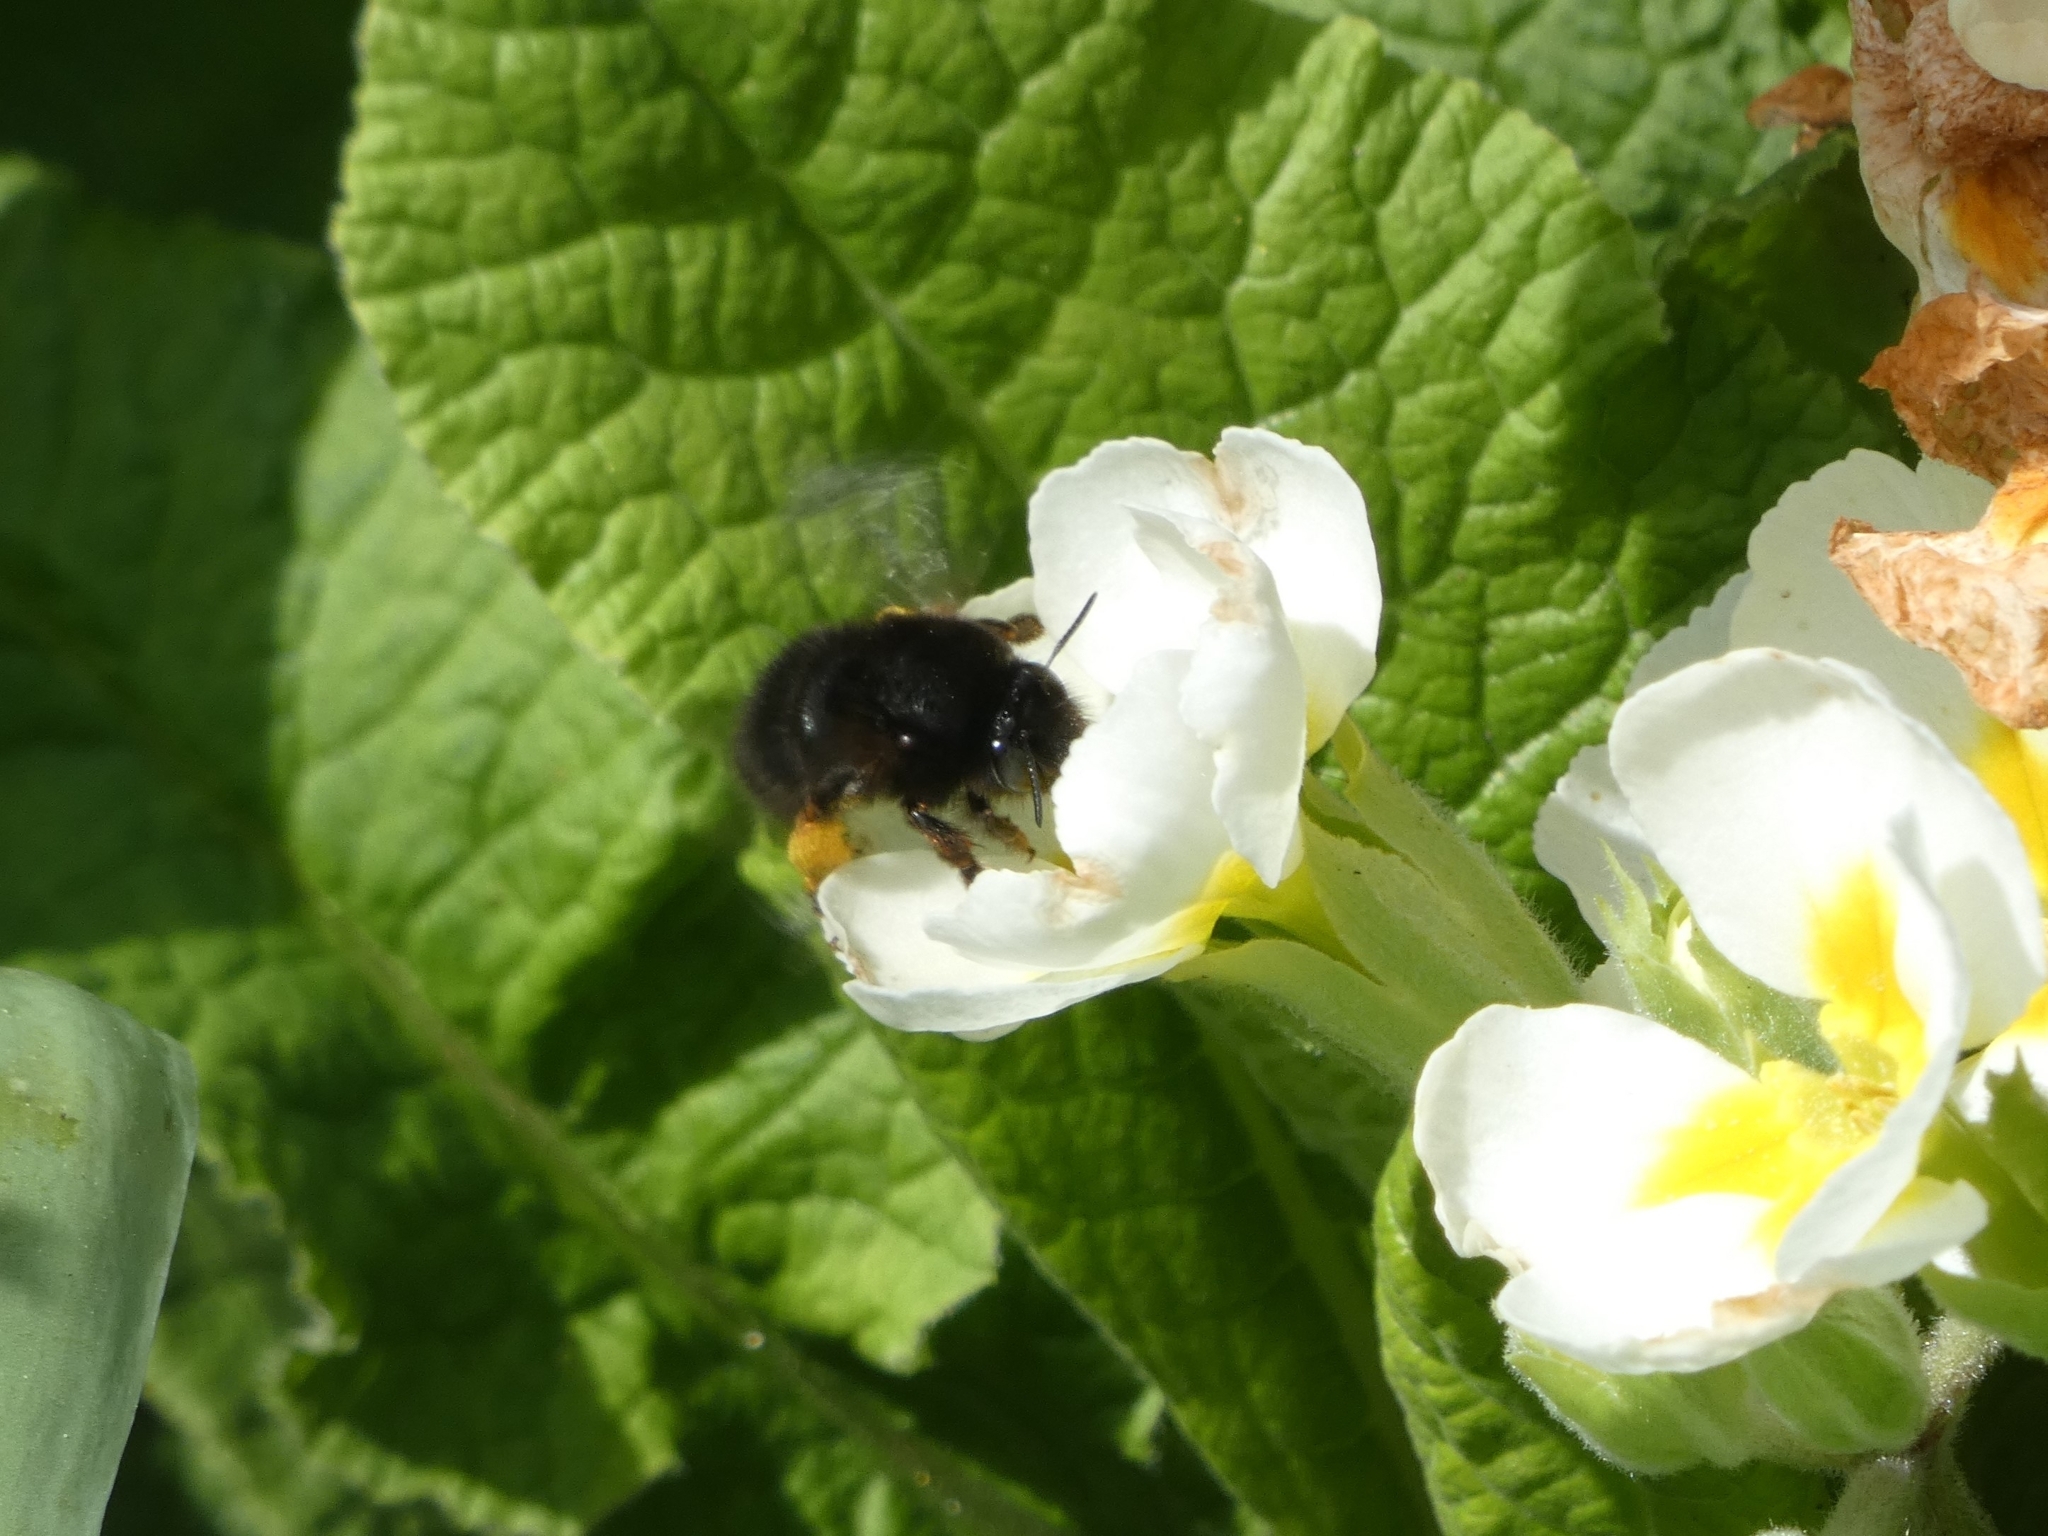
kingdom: Animalia
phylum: Arthropoda
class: Insecta
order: Hymenoptera
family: Apidae
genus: Anthophora
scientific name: Anthophora plumipes
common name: Hairy-footed flower bee
